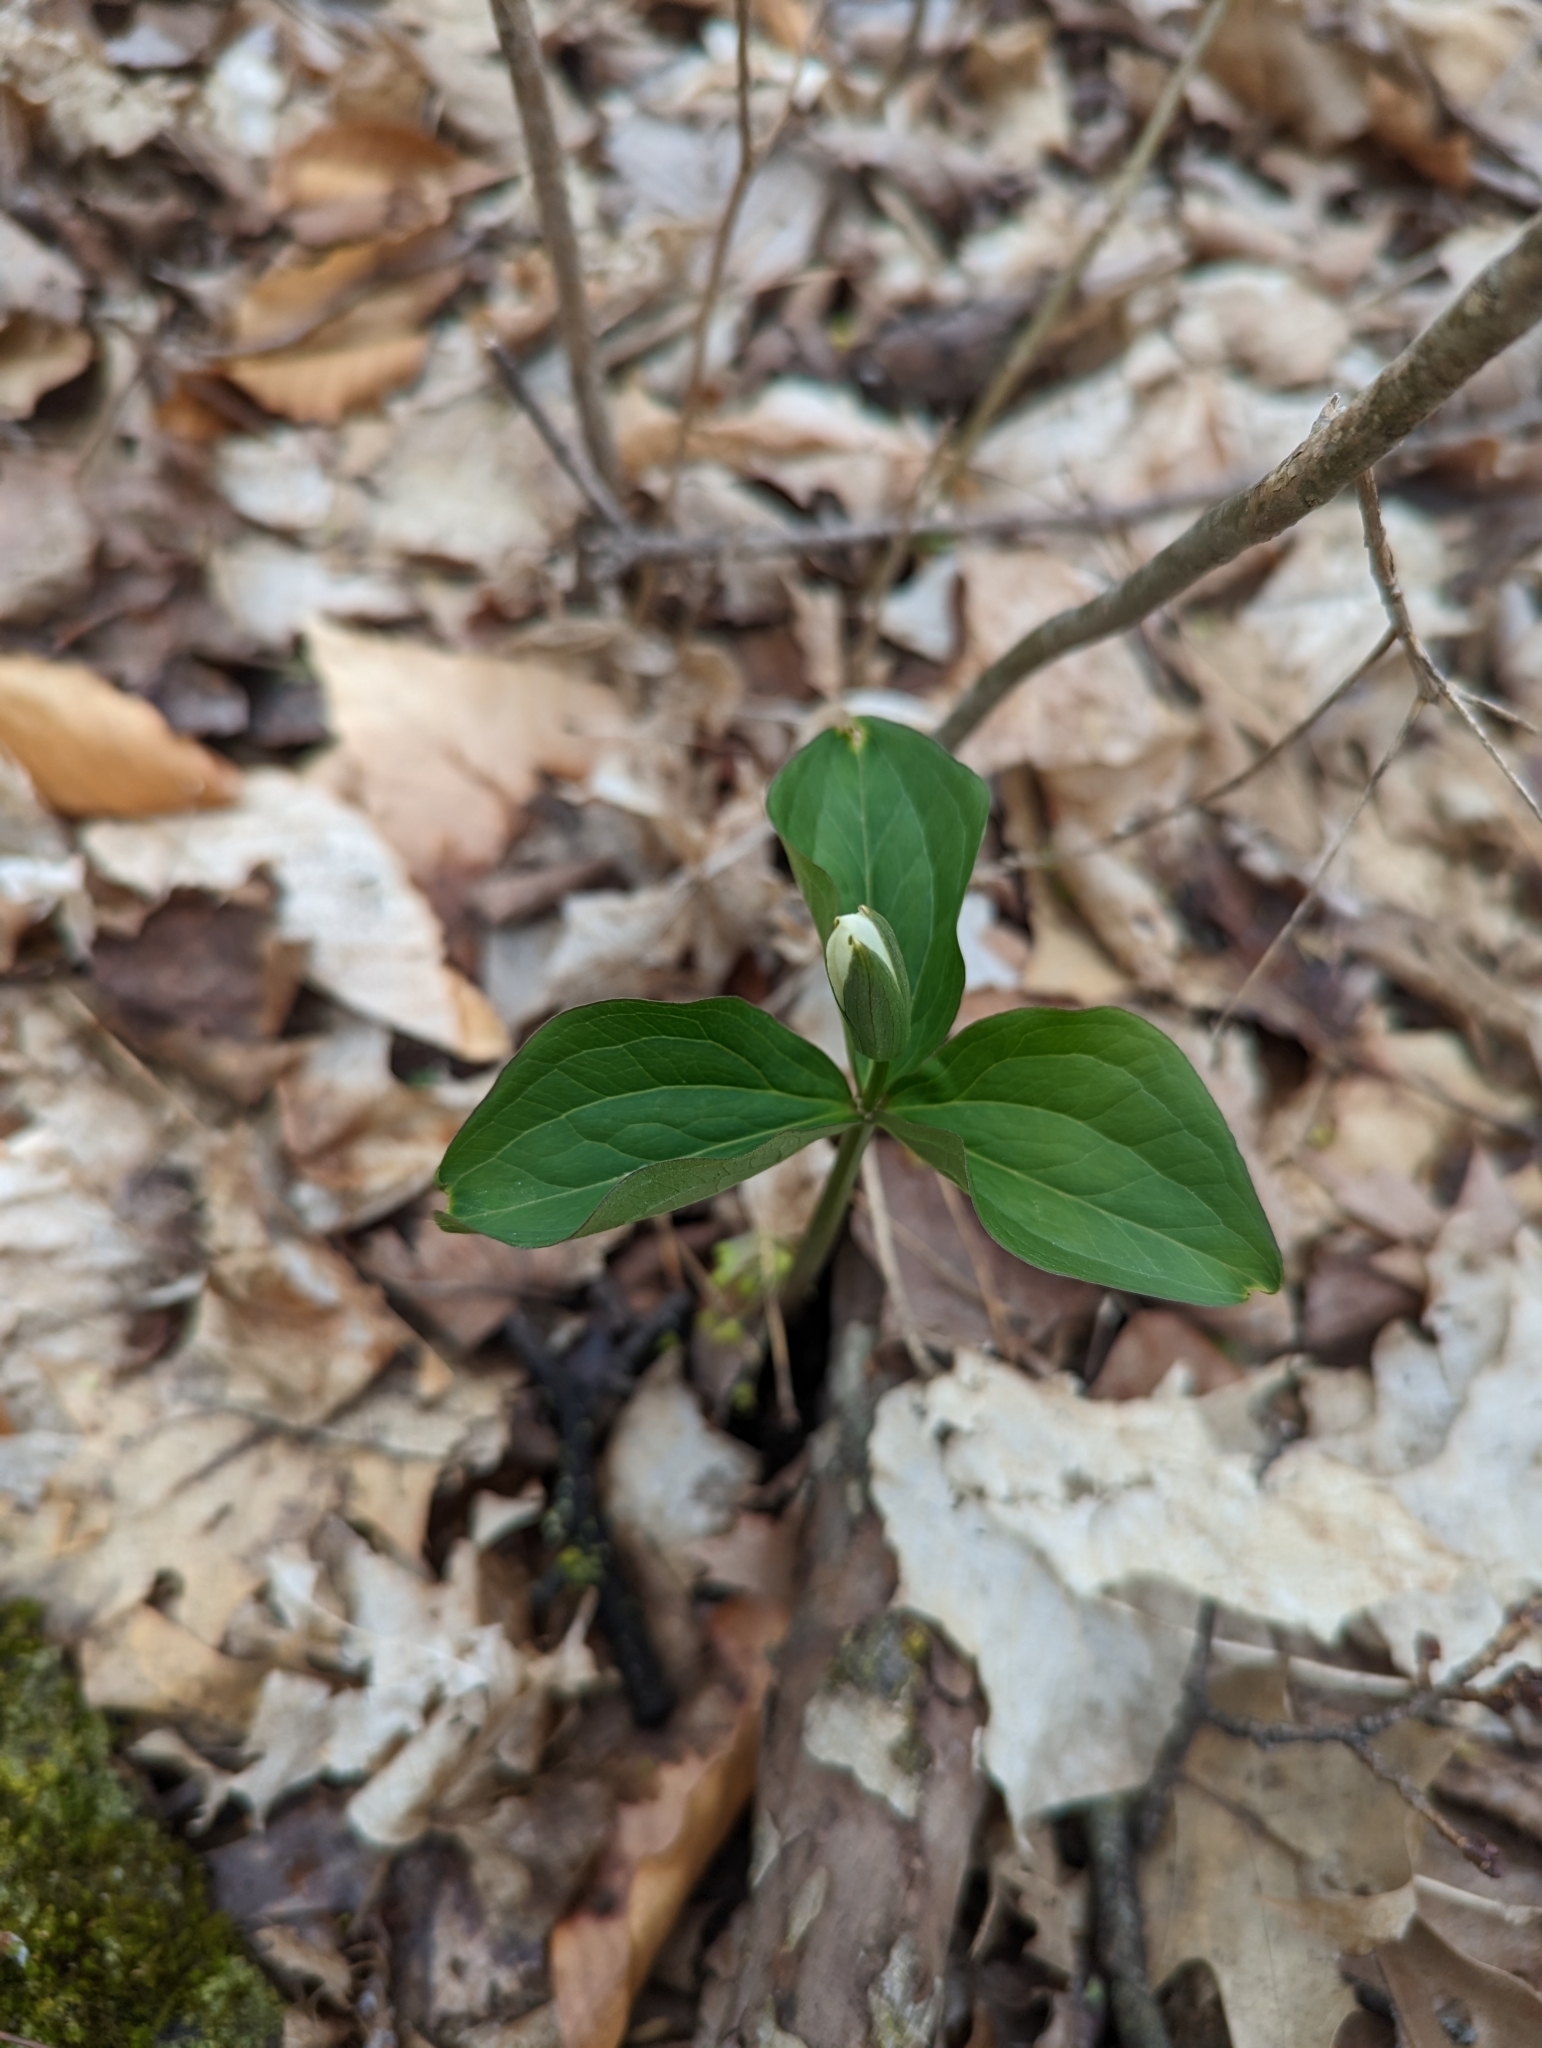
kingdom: Plantae
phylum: Tracheophyta
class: Liliopsida
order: Liliales
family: Melanthiaceae
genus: Trillium
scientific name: Trillium grandiflorum
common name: Great white trillium
